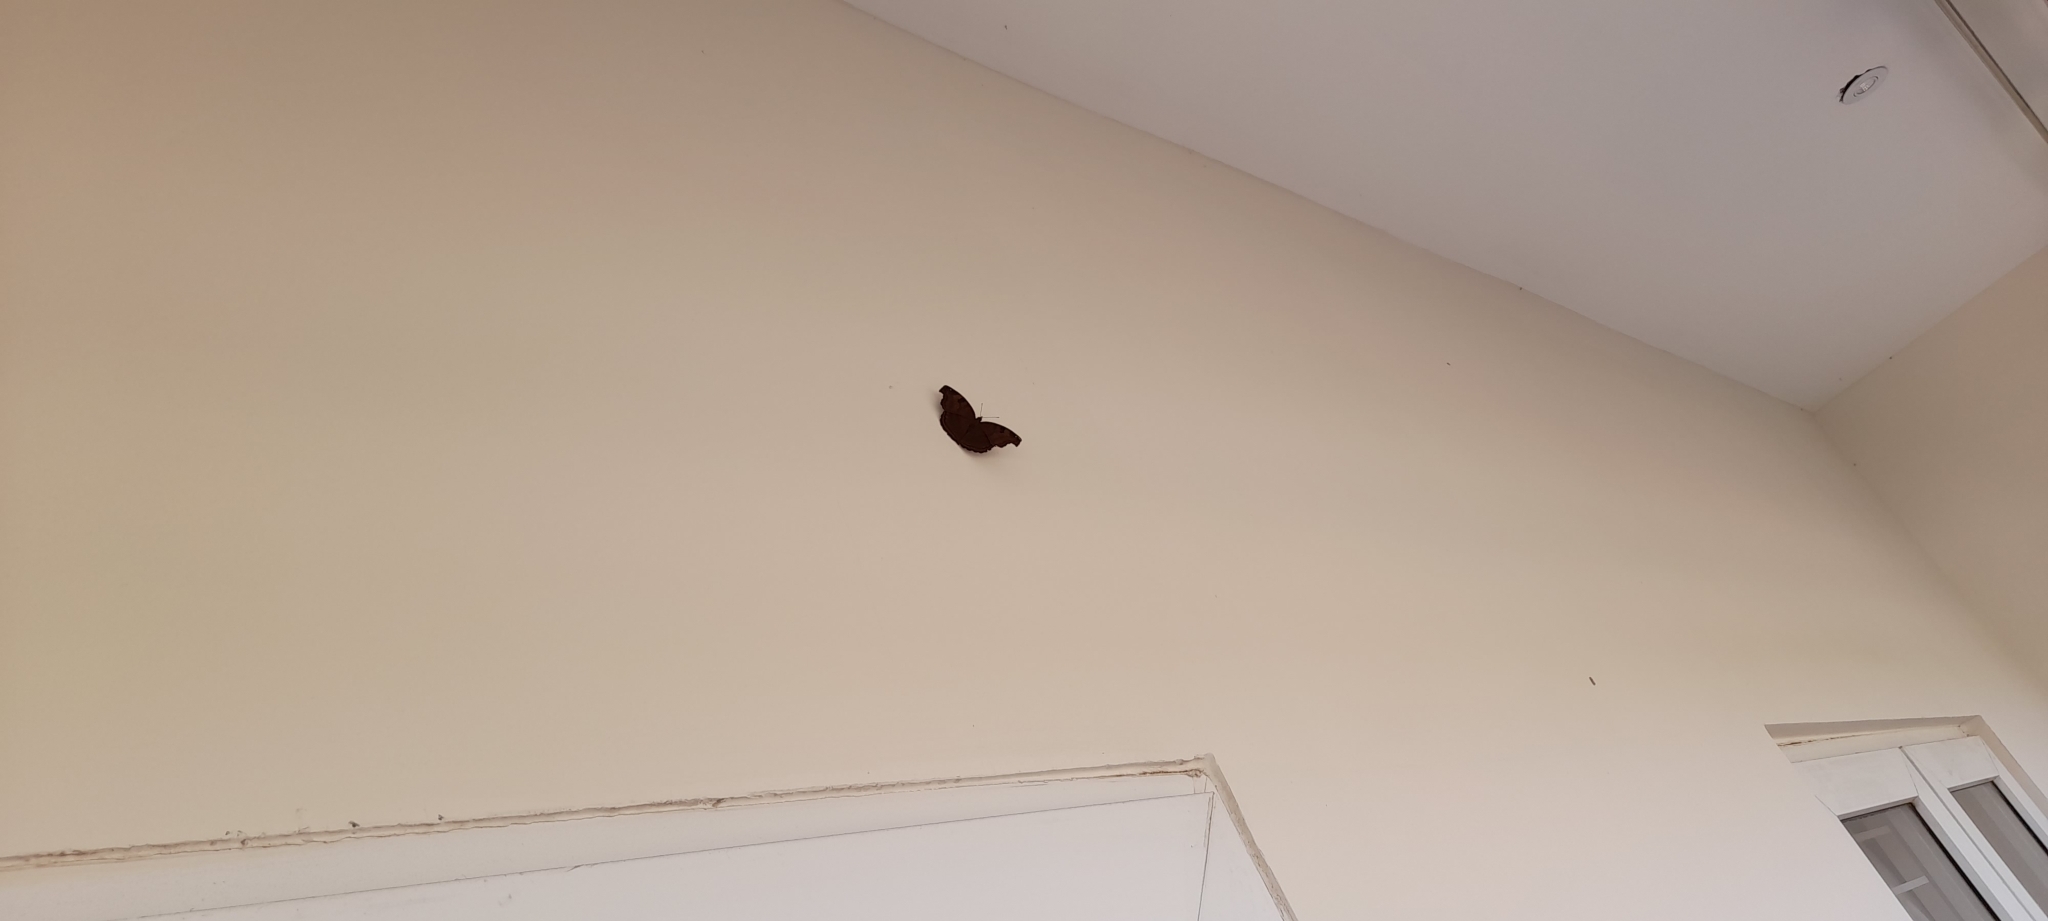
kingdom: Animalia
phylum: Arthropoda
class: Insecta
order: Lepidoptera
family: Nymphalidae
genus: Junonia
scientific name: Junonia iphita
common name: Chocolate pansy
